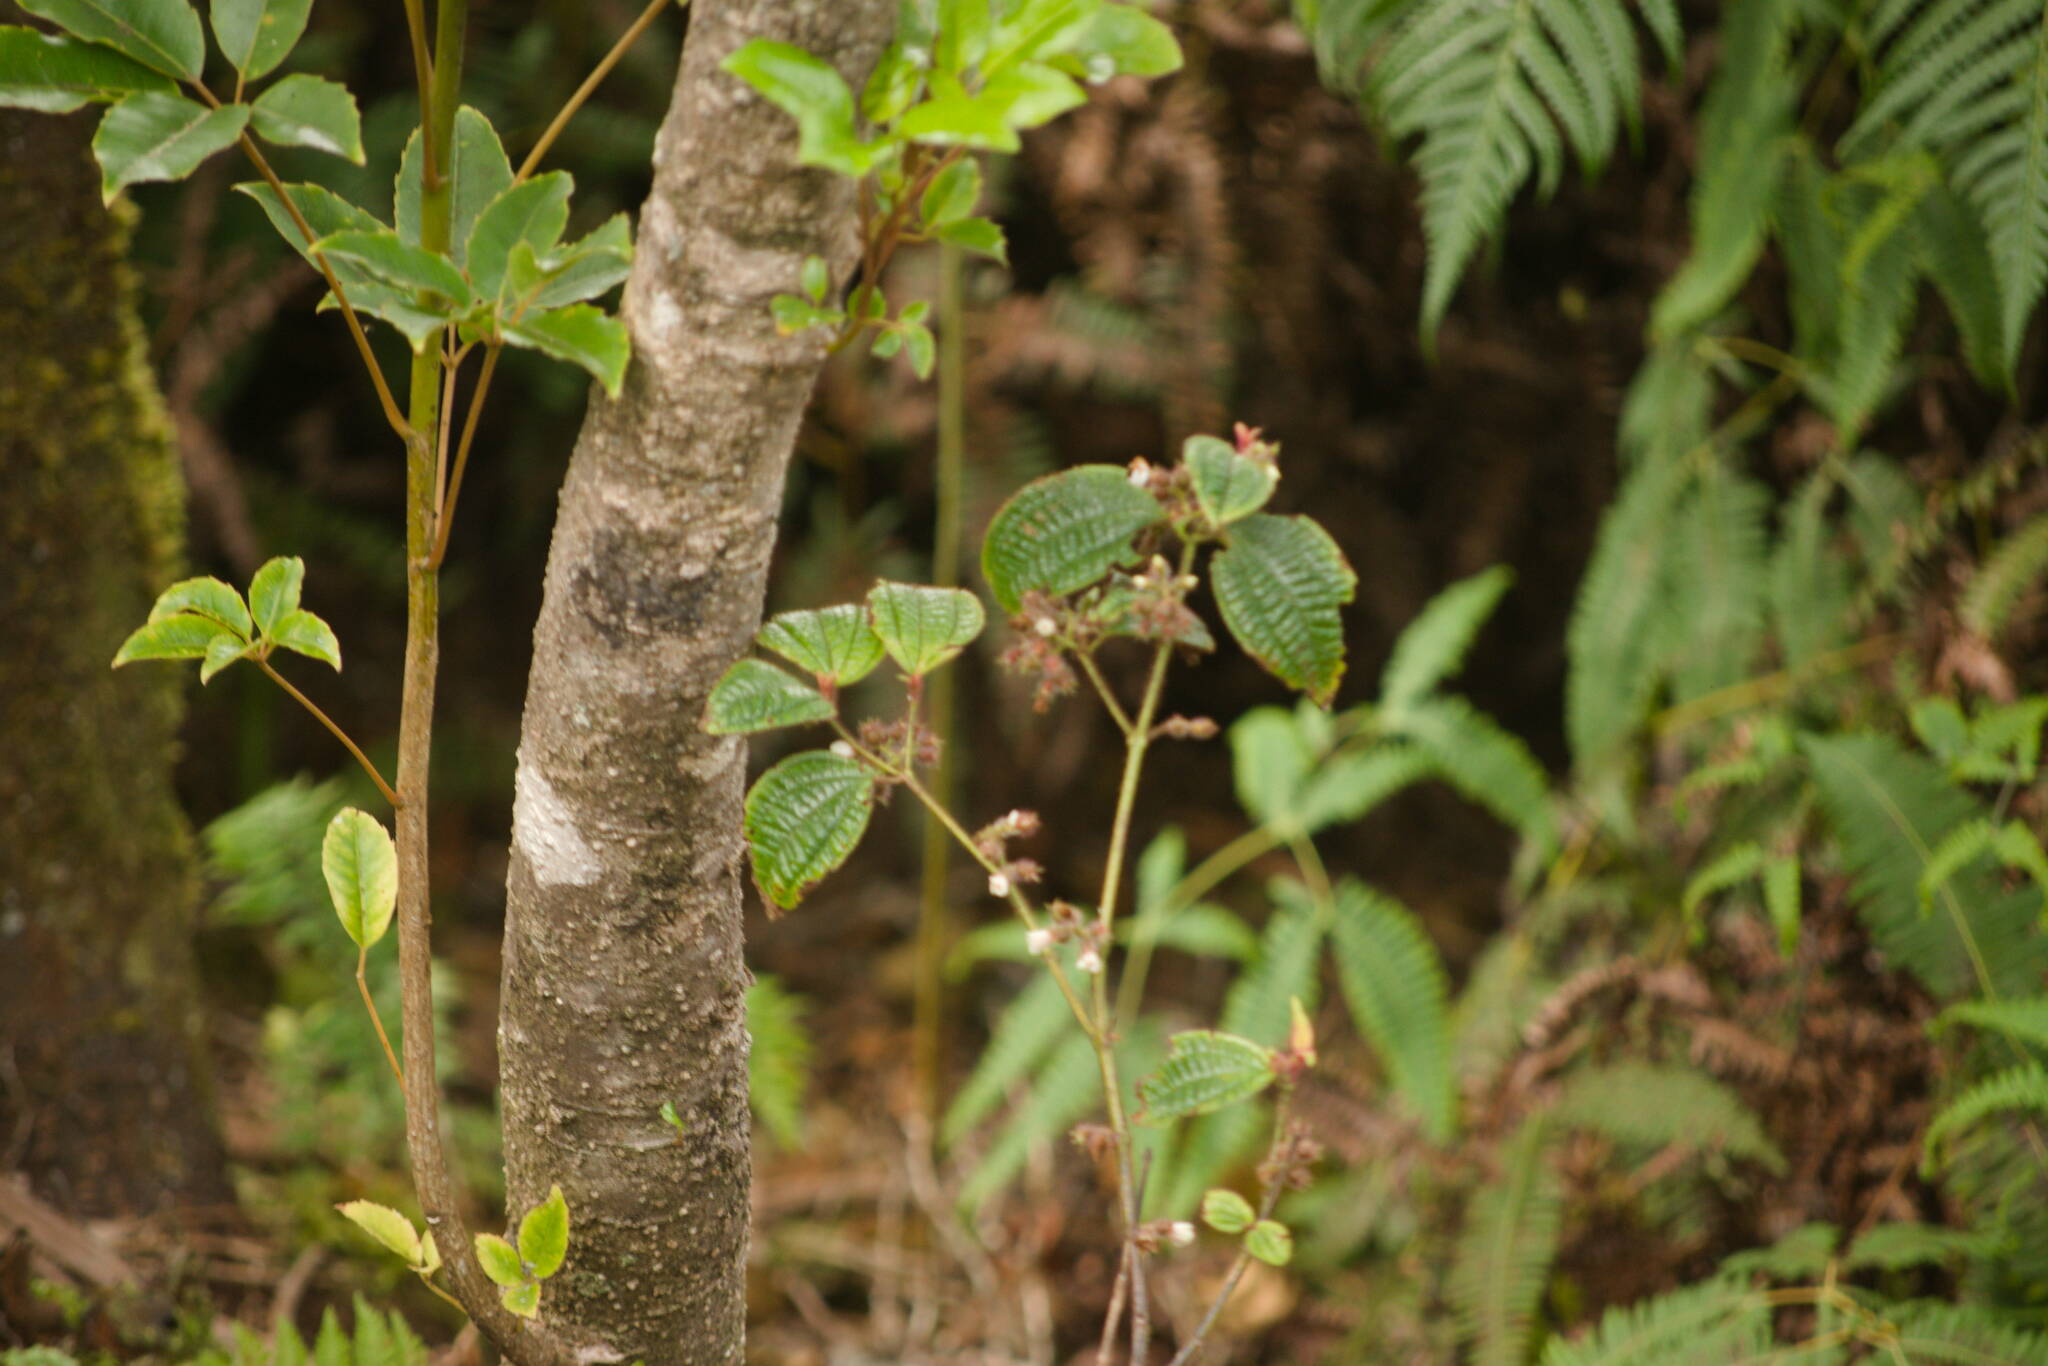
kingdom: Plantae
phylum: Tracheophyta
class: Magnoliopsida
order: Myrtales
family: Melastomataceae
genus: Miconia
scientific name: Miconia crenata
